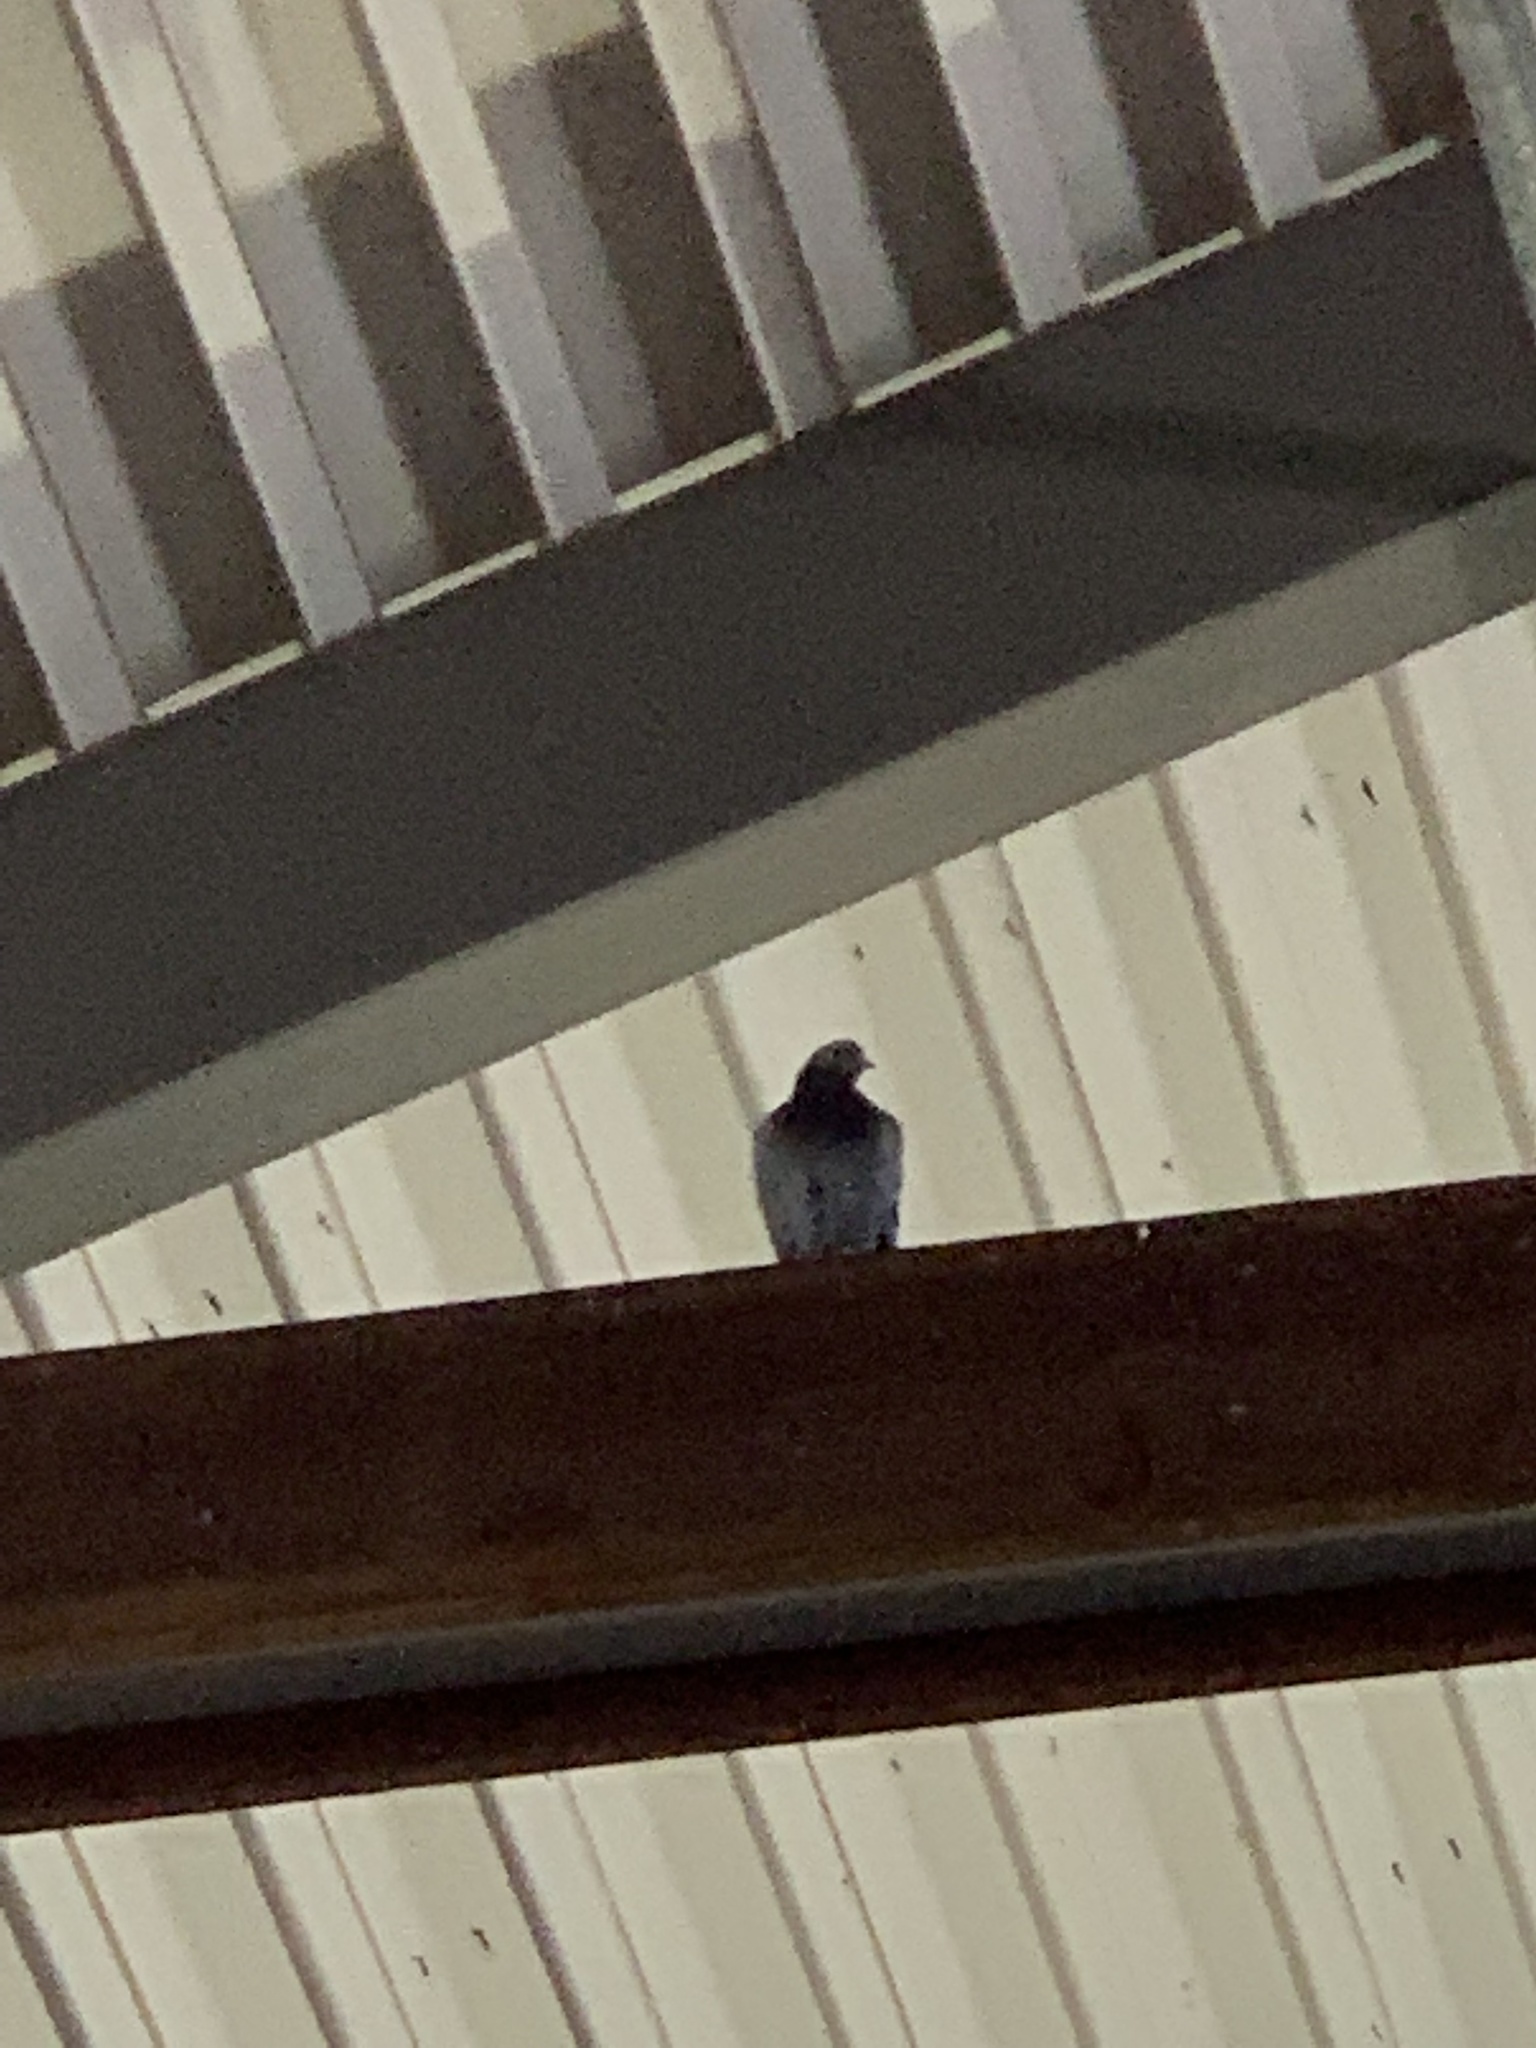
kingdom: Animalia
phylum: Chordata
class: Aves
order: Columbiformes
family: Columbidae
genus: Columba
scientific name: Columba livia
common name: Rock pigeon
